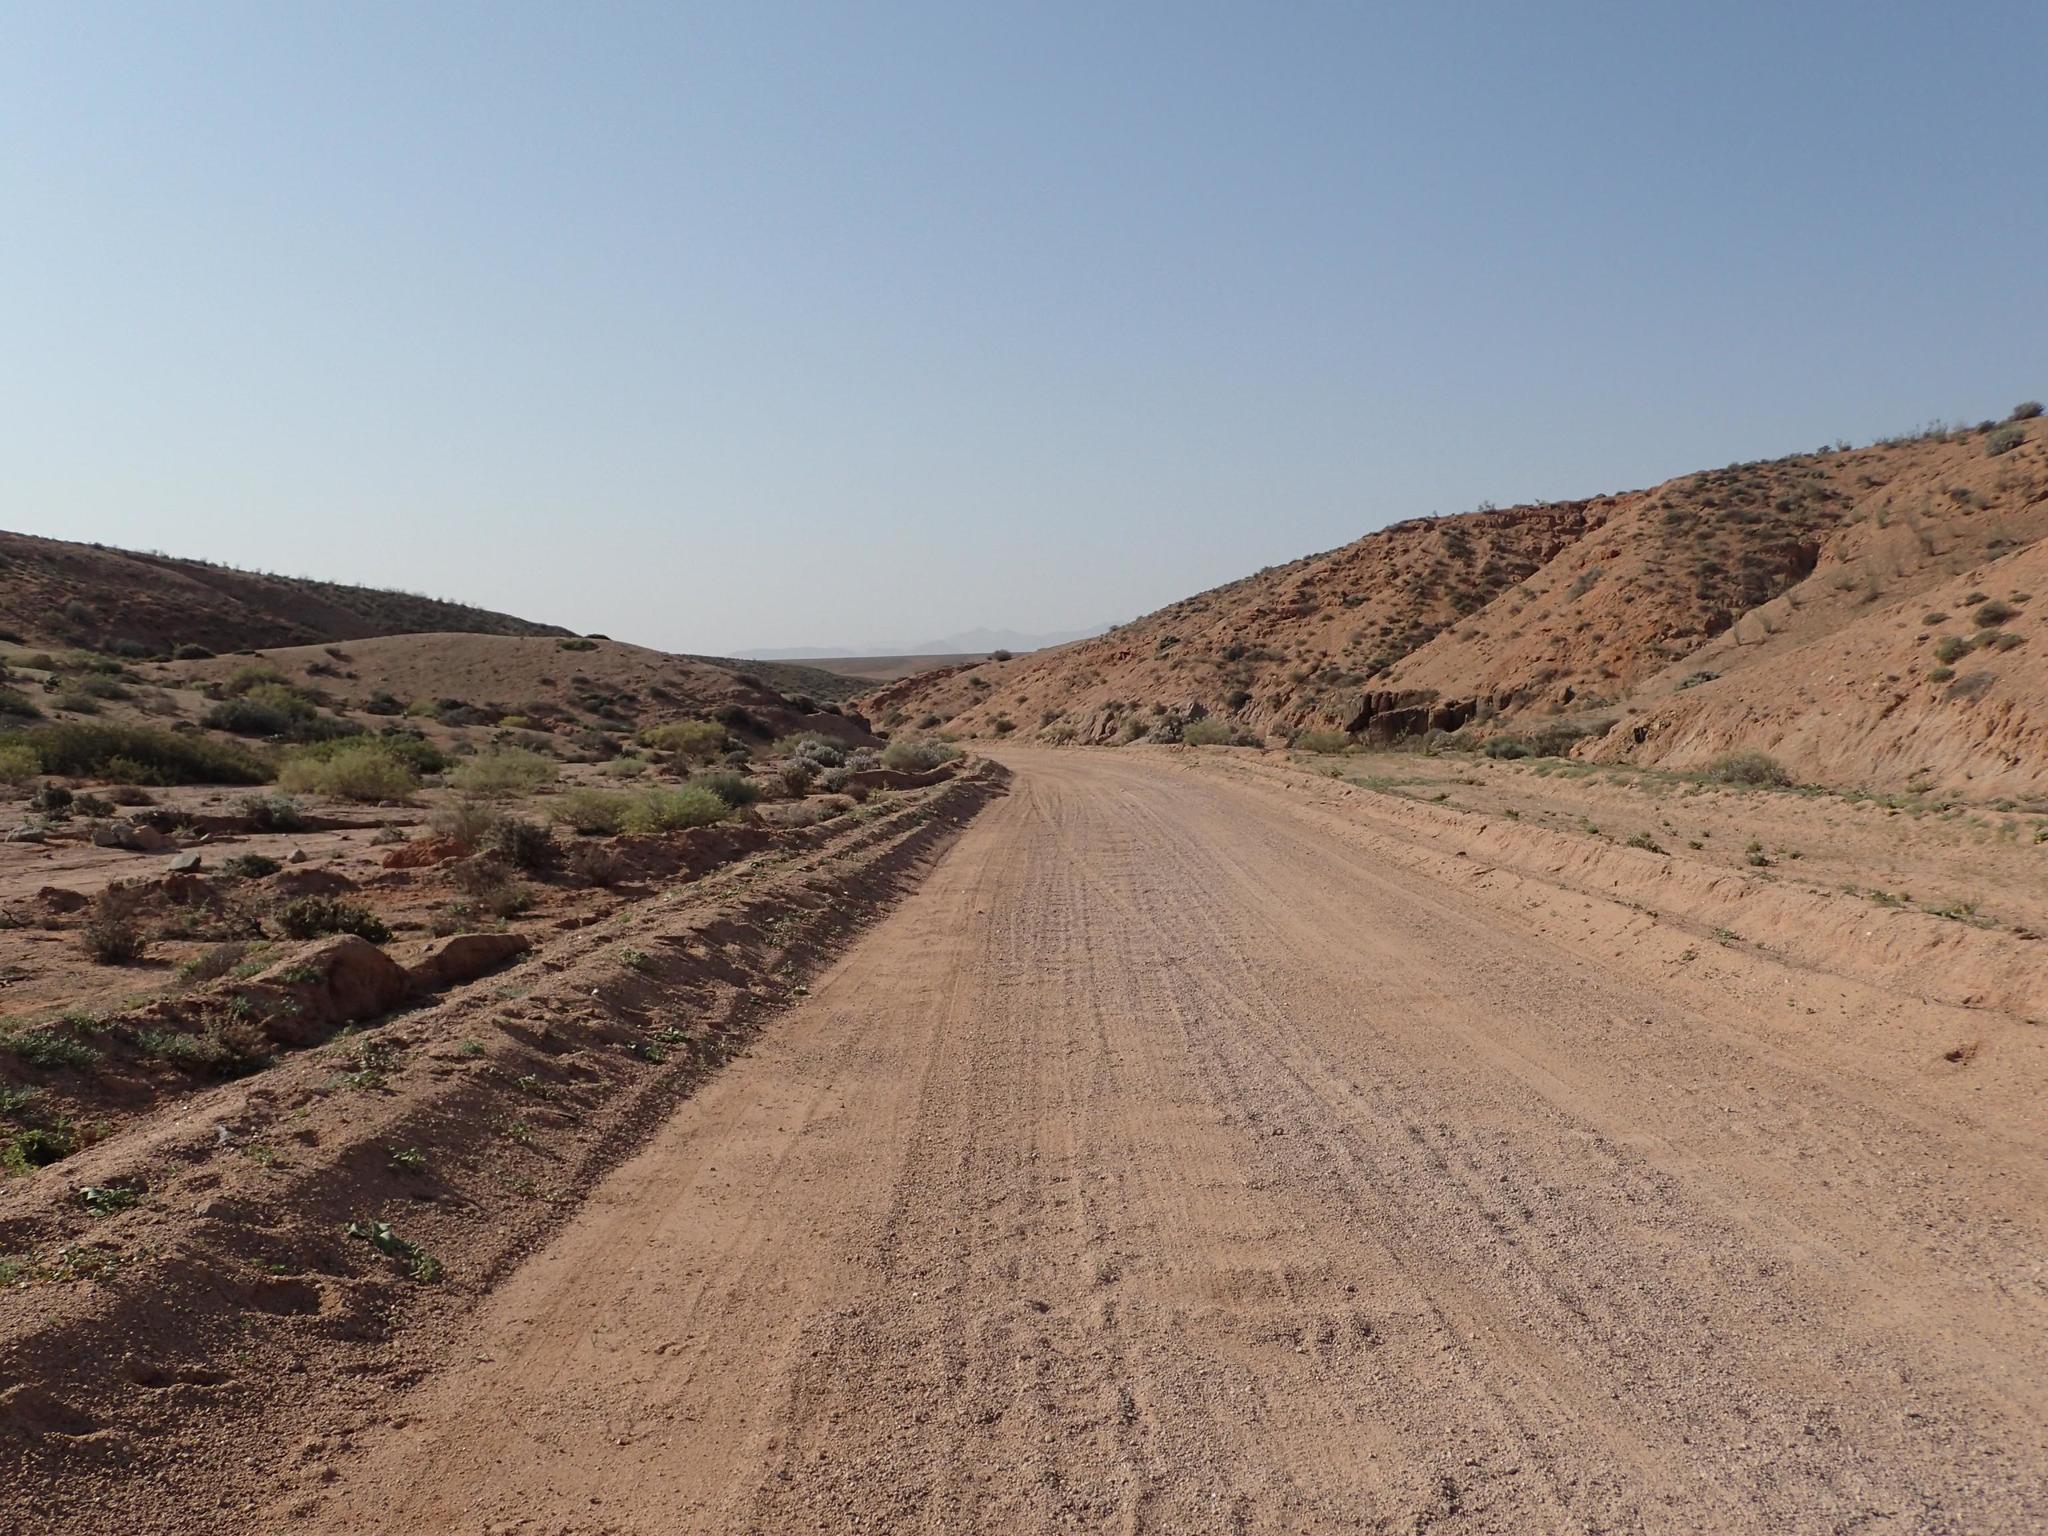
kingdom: Plantae
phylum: Tracheophyta
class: Magnoliopsida
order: Lamiales
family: Scrophulariaceae
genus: Jamesbrittenia
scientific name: Jamesbrittenia fruticosa
